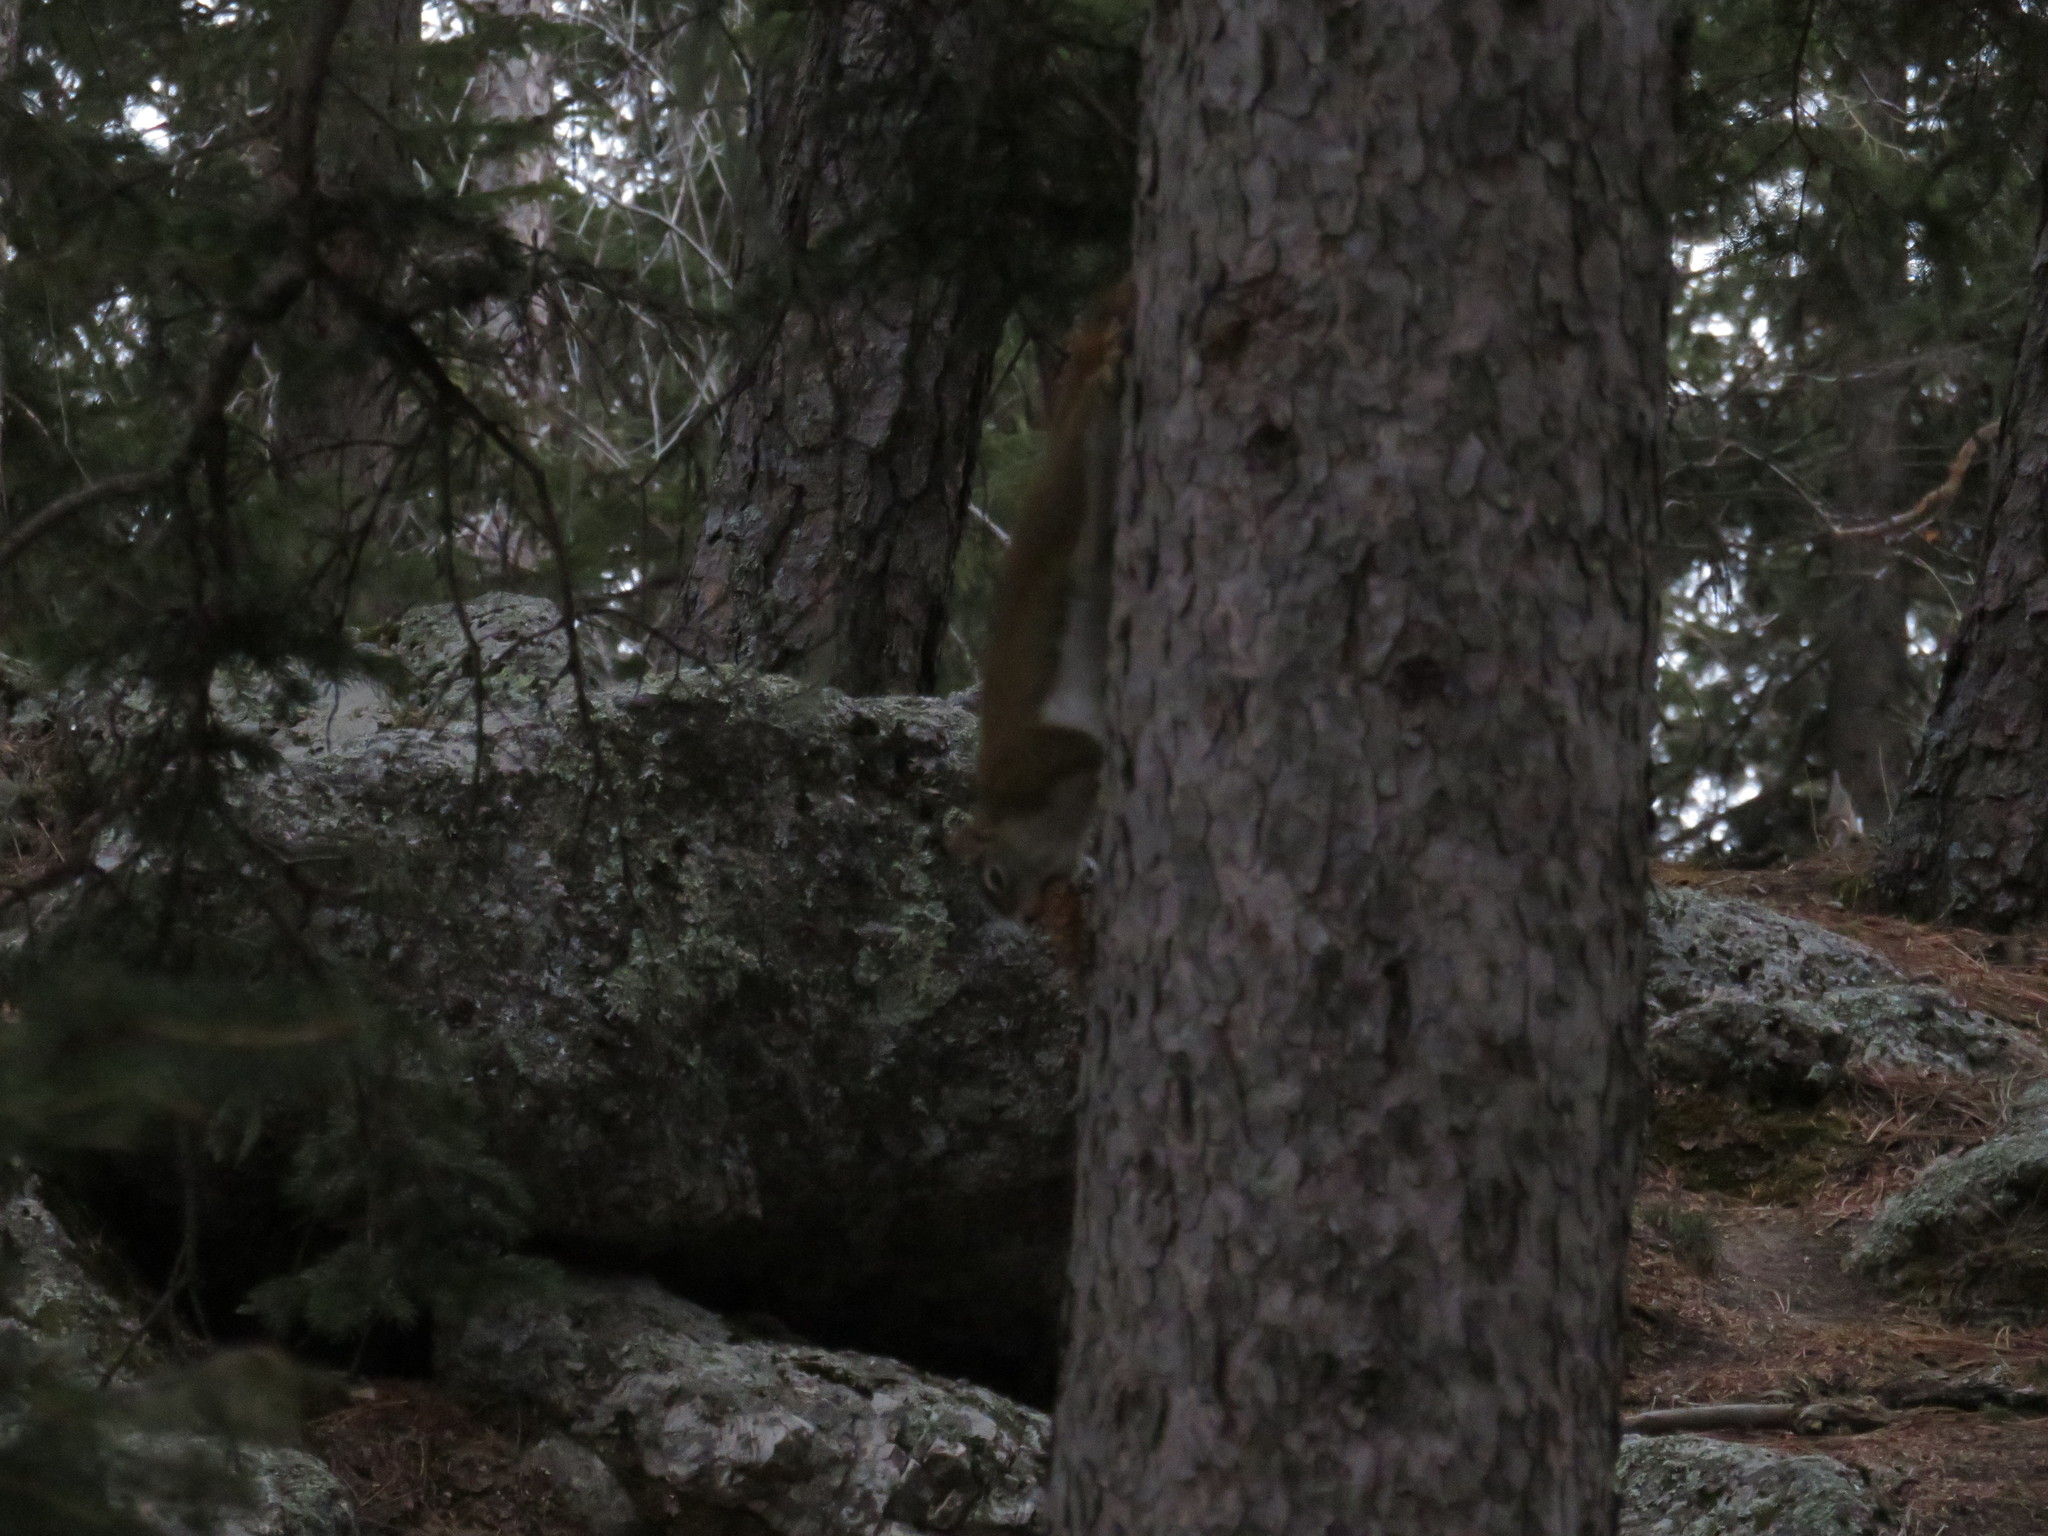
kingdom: Animalia
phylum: Chordata
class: Mammalia
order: Rodentia
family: Sciuridae
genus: Tamiasciurus
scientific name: Tamiasciurus hudsonicus
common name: Red squirrel
